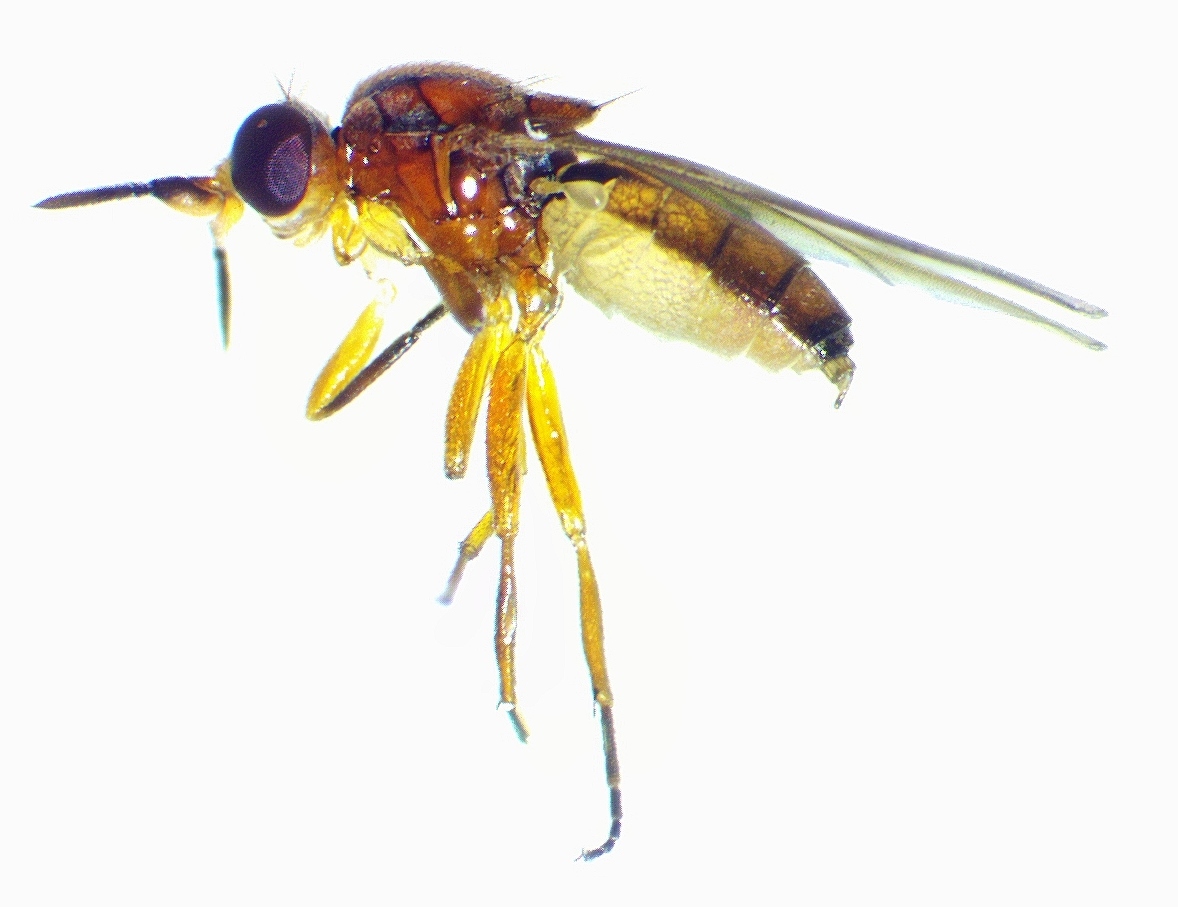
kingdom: Animalia
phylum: Arthropoda
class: Insecta
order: Diptera
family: Chloropidae
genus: Ceratobarys
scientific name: Ceratobarys eulophus
